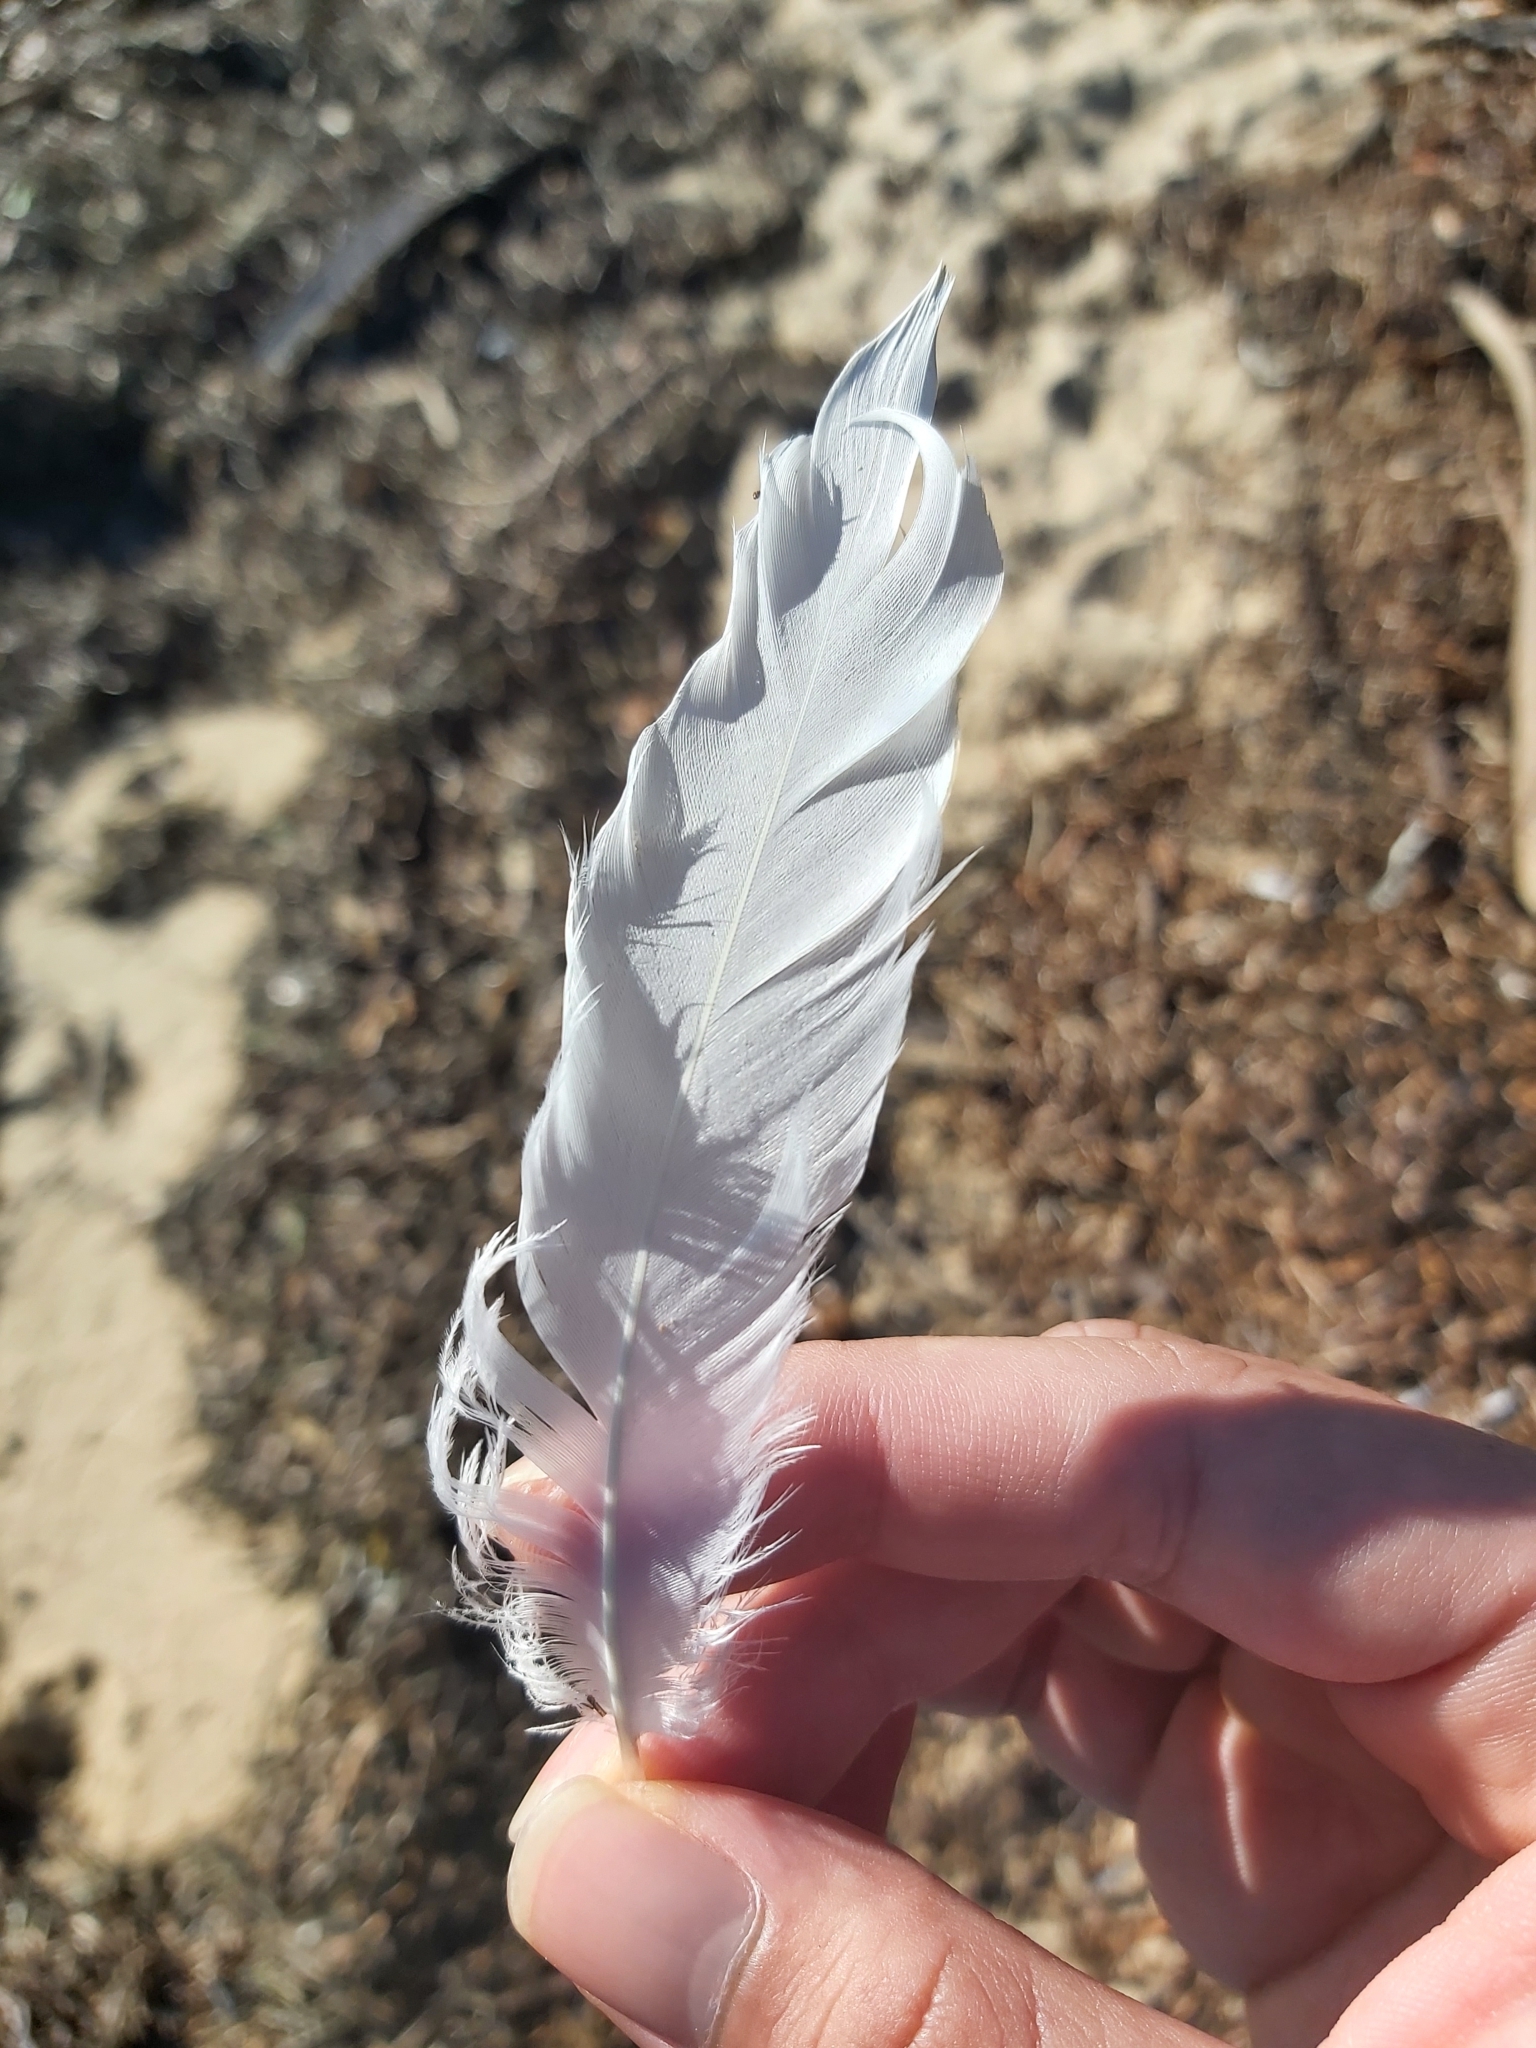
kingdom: Animalia
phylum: Chordata
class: Aves
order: Pelecaniformes
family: Threskiornithidae
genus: Threskiornis
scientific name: Threskiornis molucca
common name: Australian white ibis
